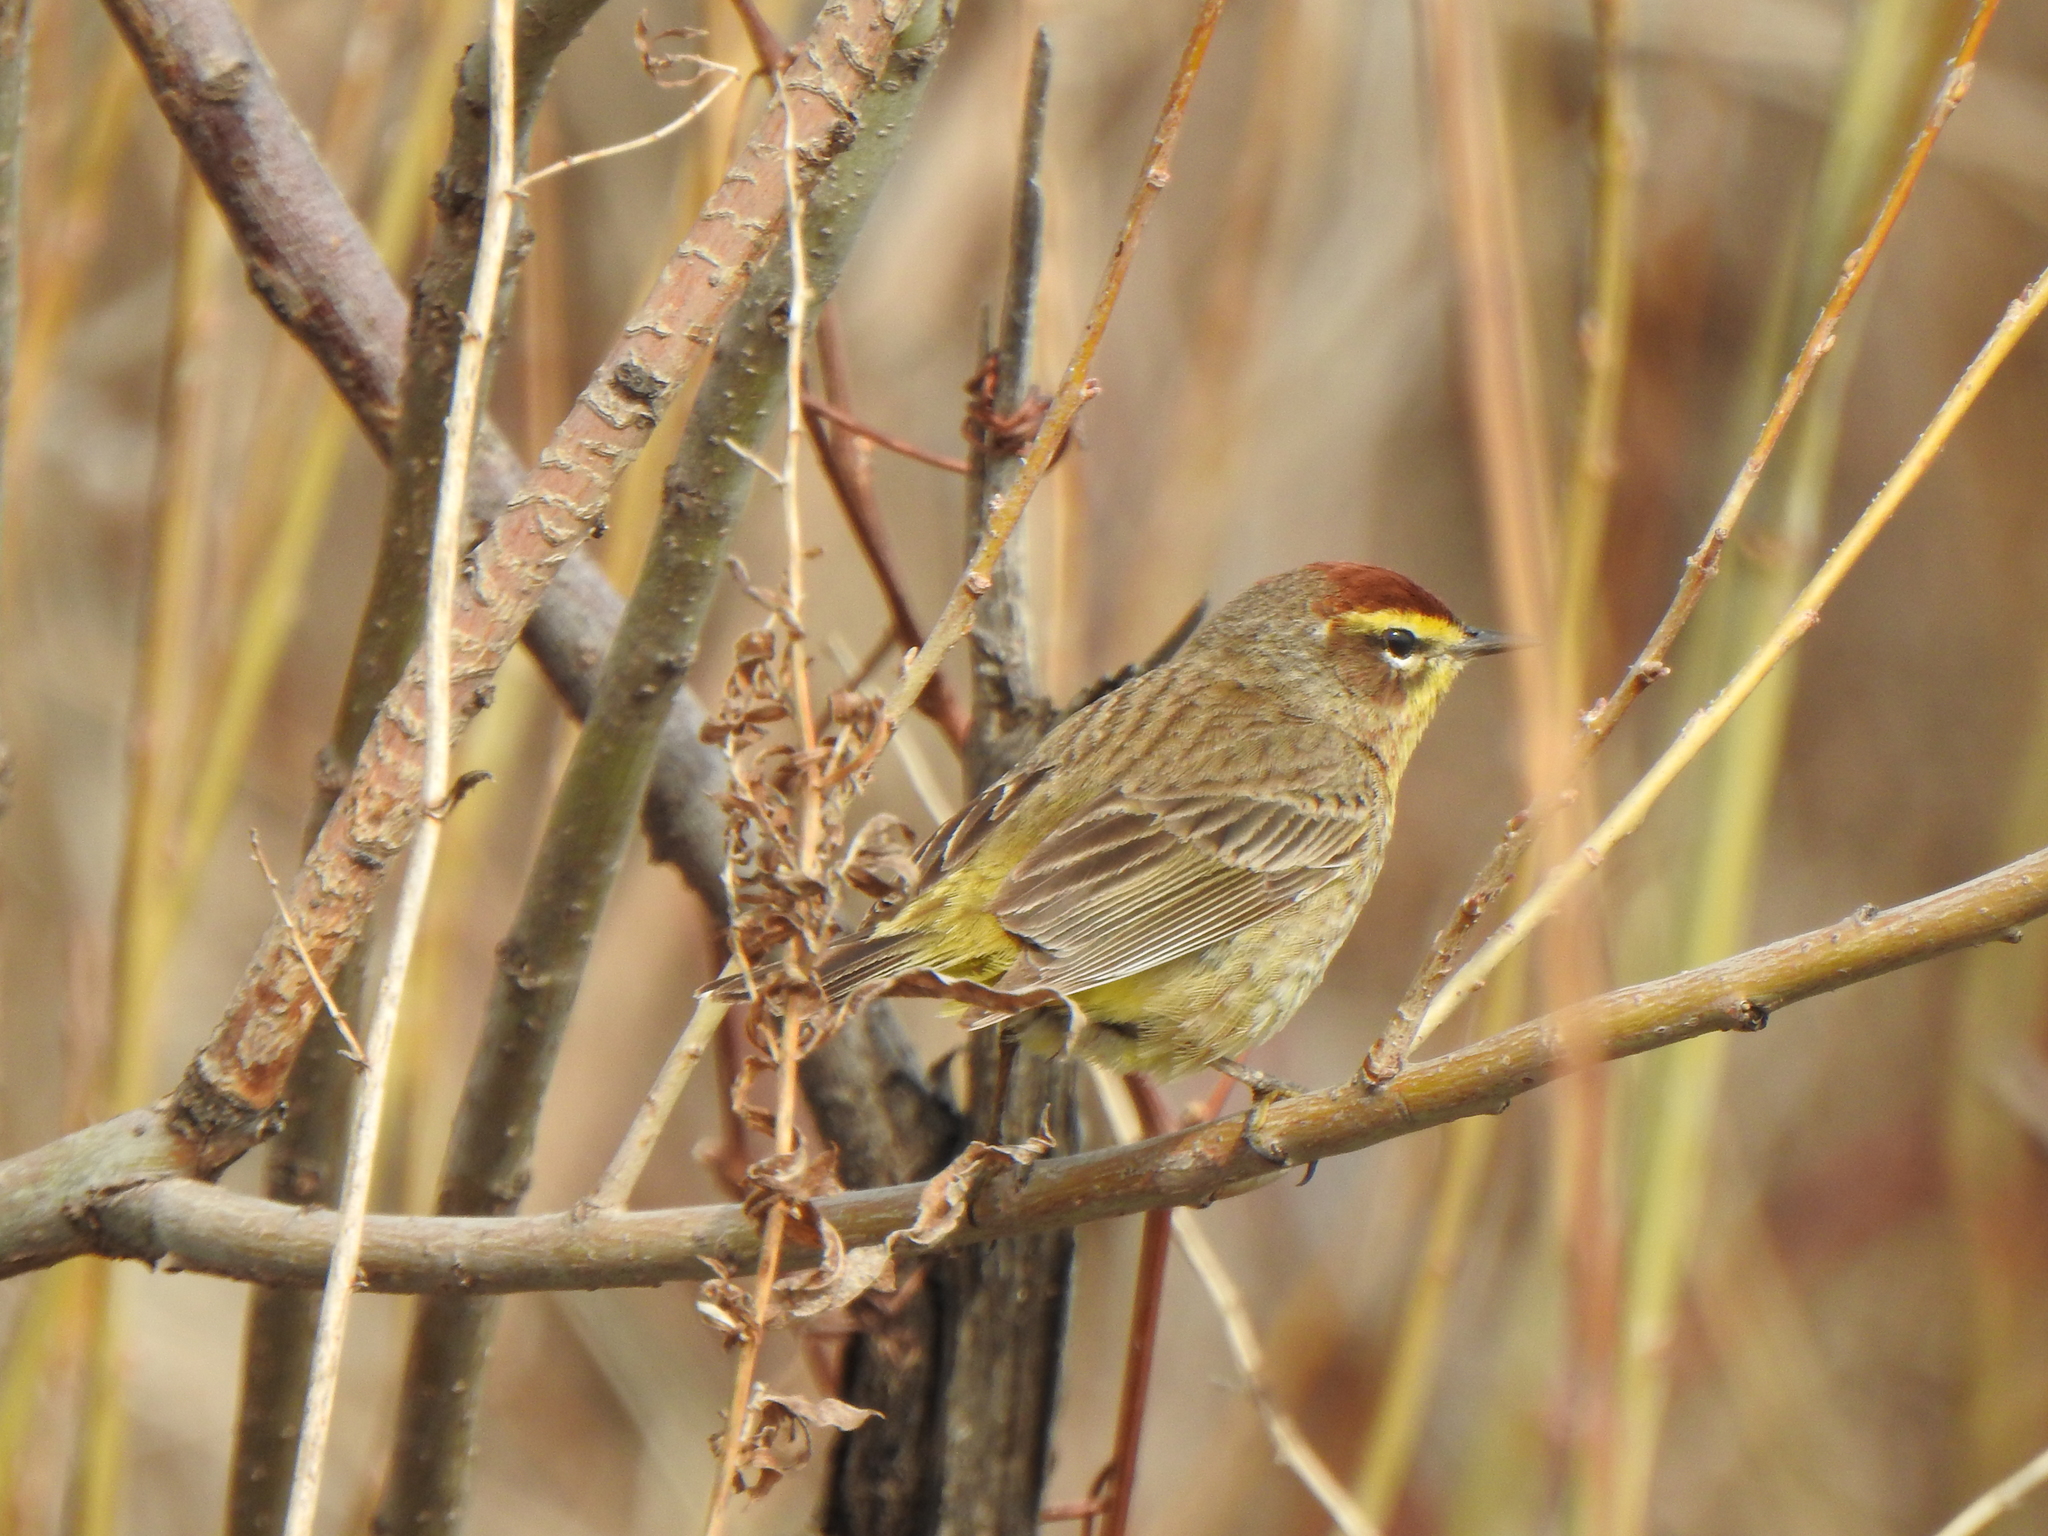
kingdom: Animalia
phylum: Chordata
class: Aves
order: Passeriformes
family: Parulidae
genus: Setophaga
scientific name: Setophaga palmarum
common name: Palm warbler
